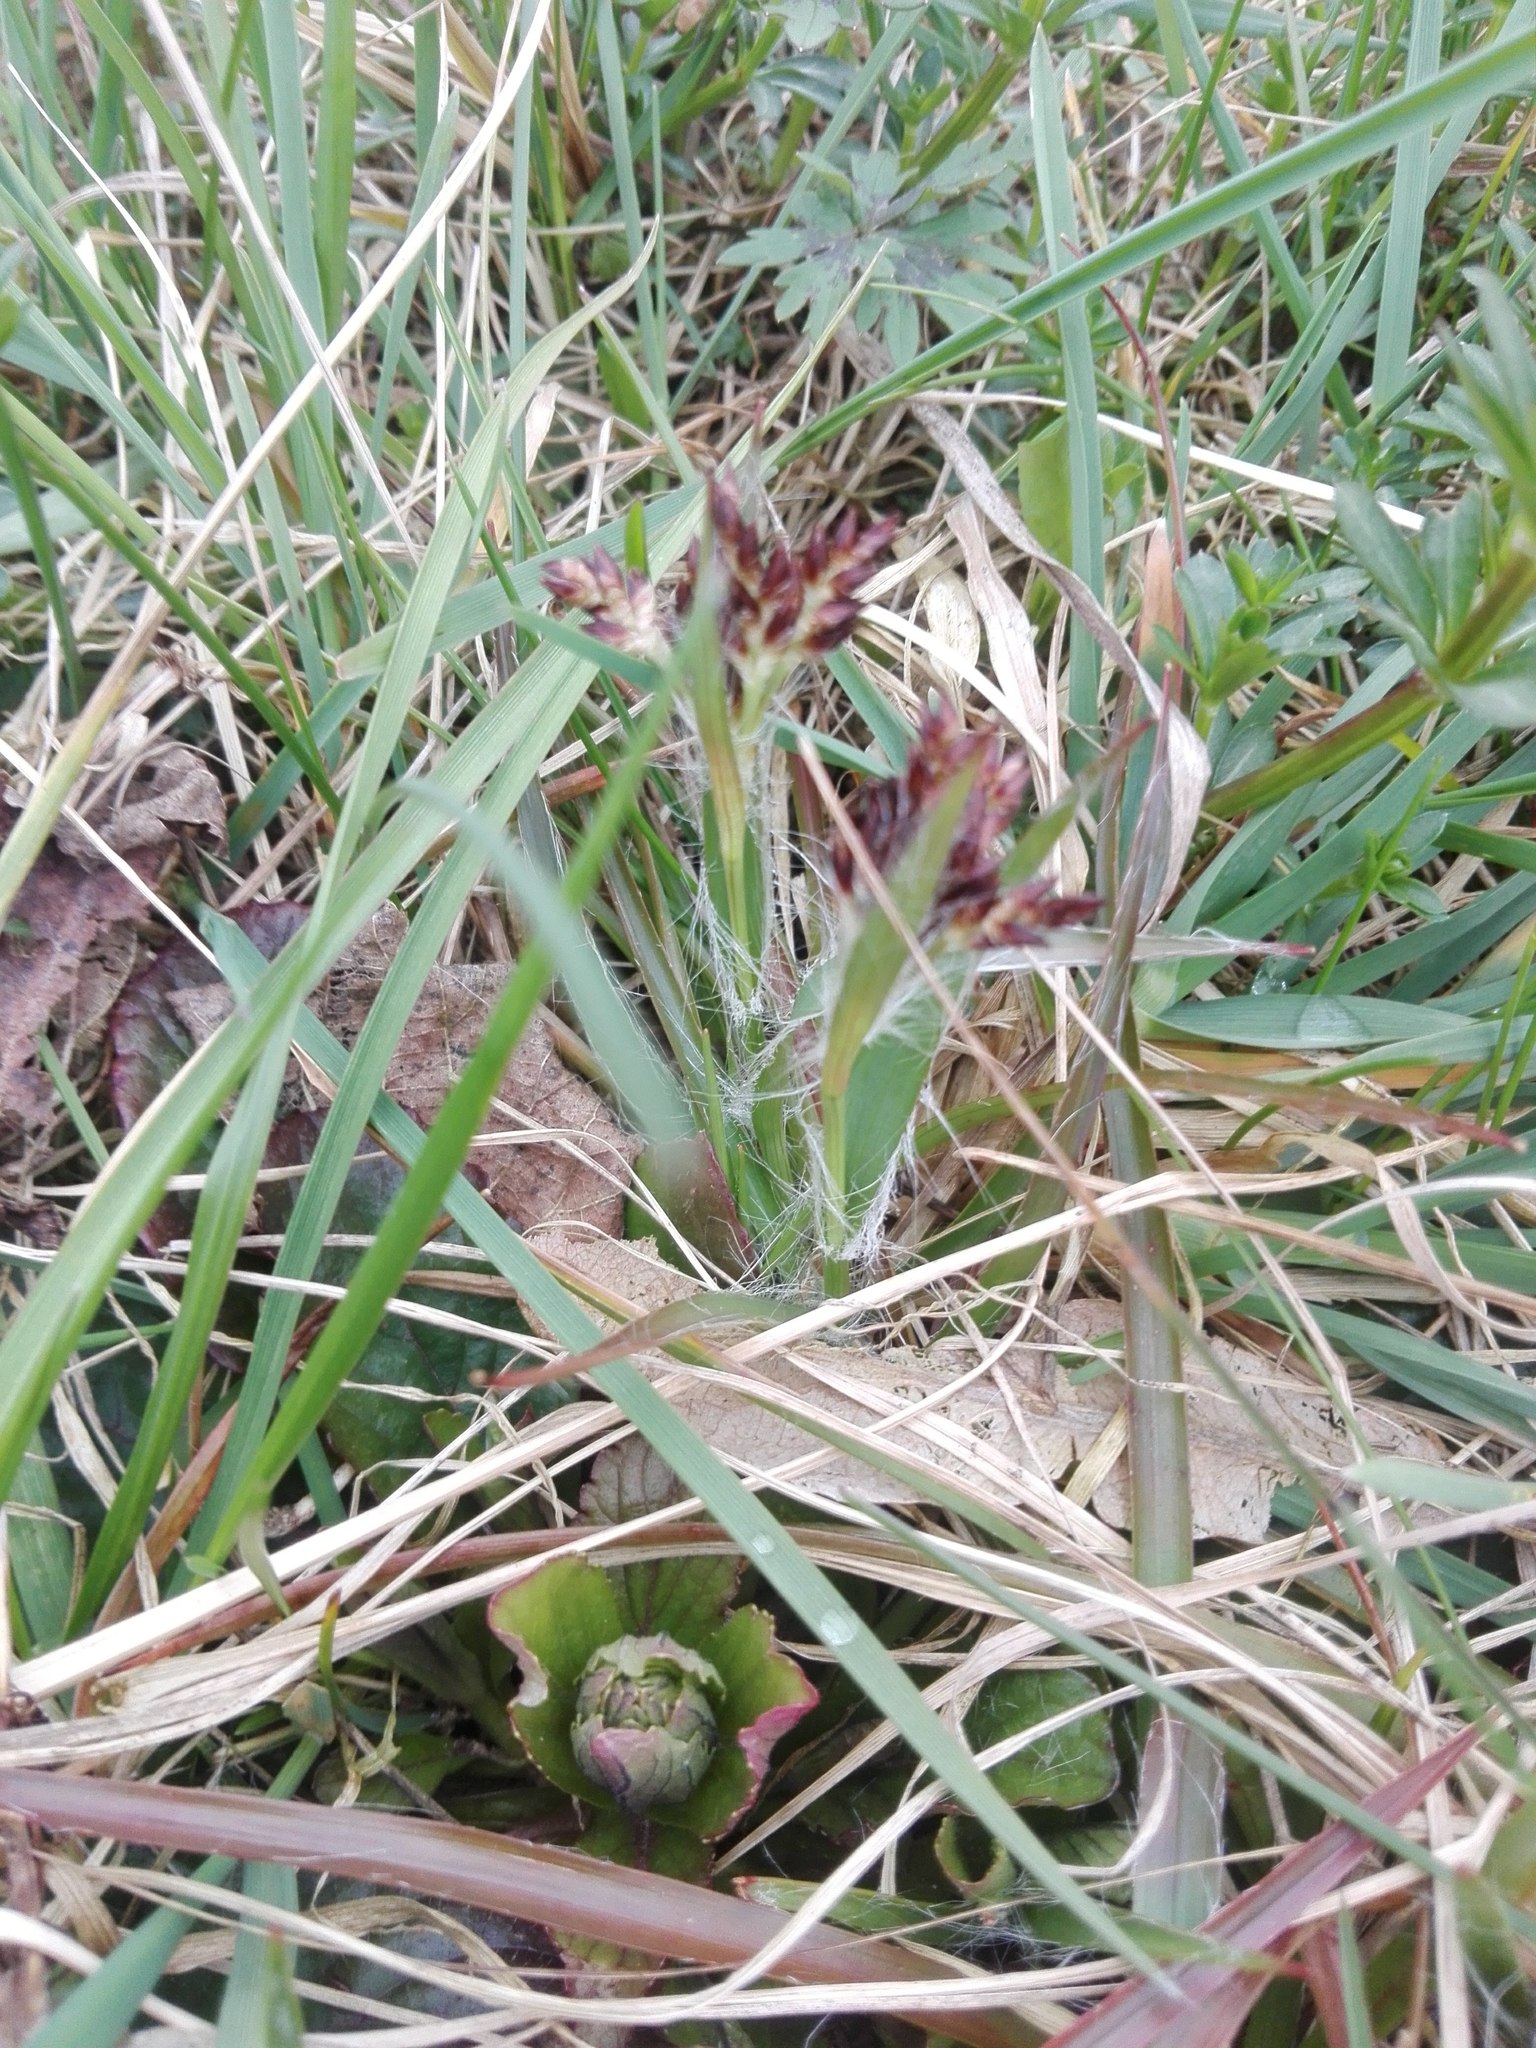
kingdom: Plantae
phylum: Tracheophyta
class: Liliopsida
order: Poales
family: Juncaceae
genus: Luzula
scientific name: Luzula campestris
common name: Field wood-rush
